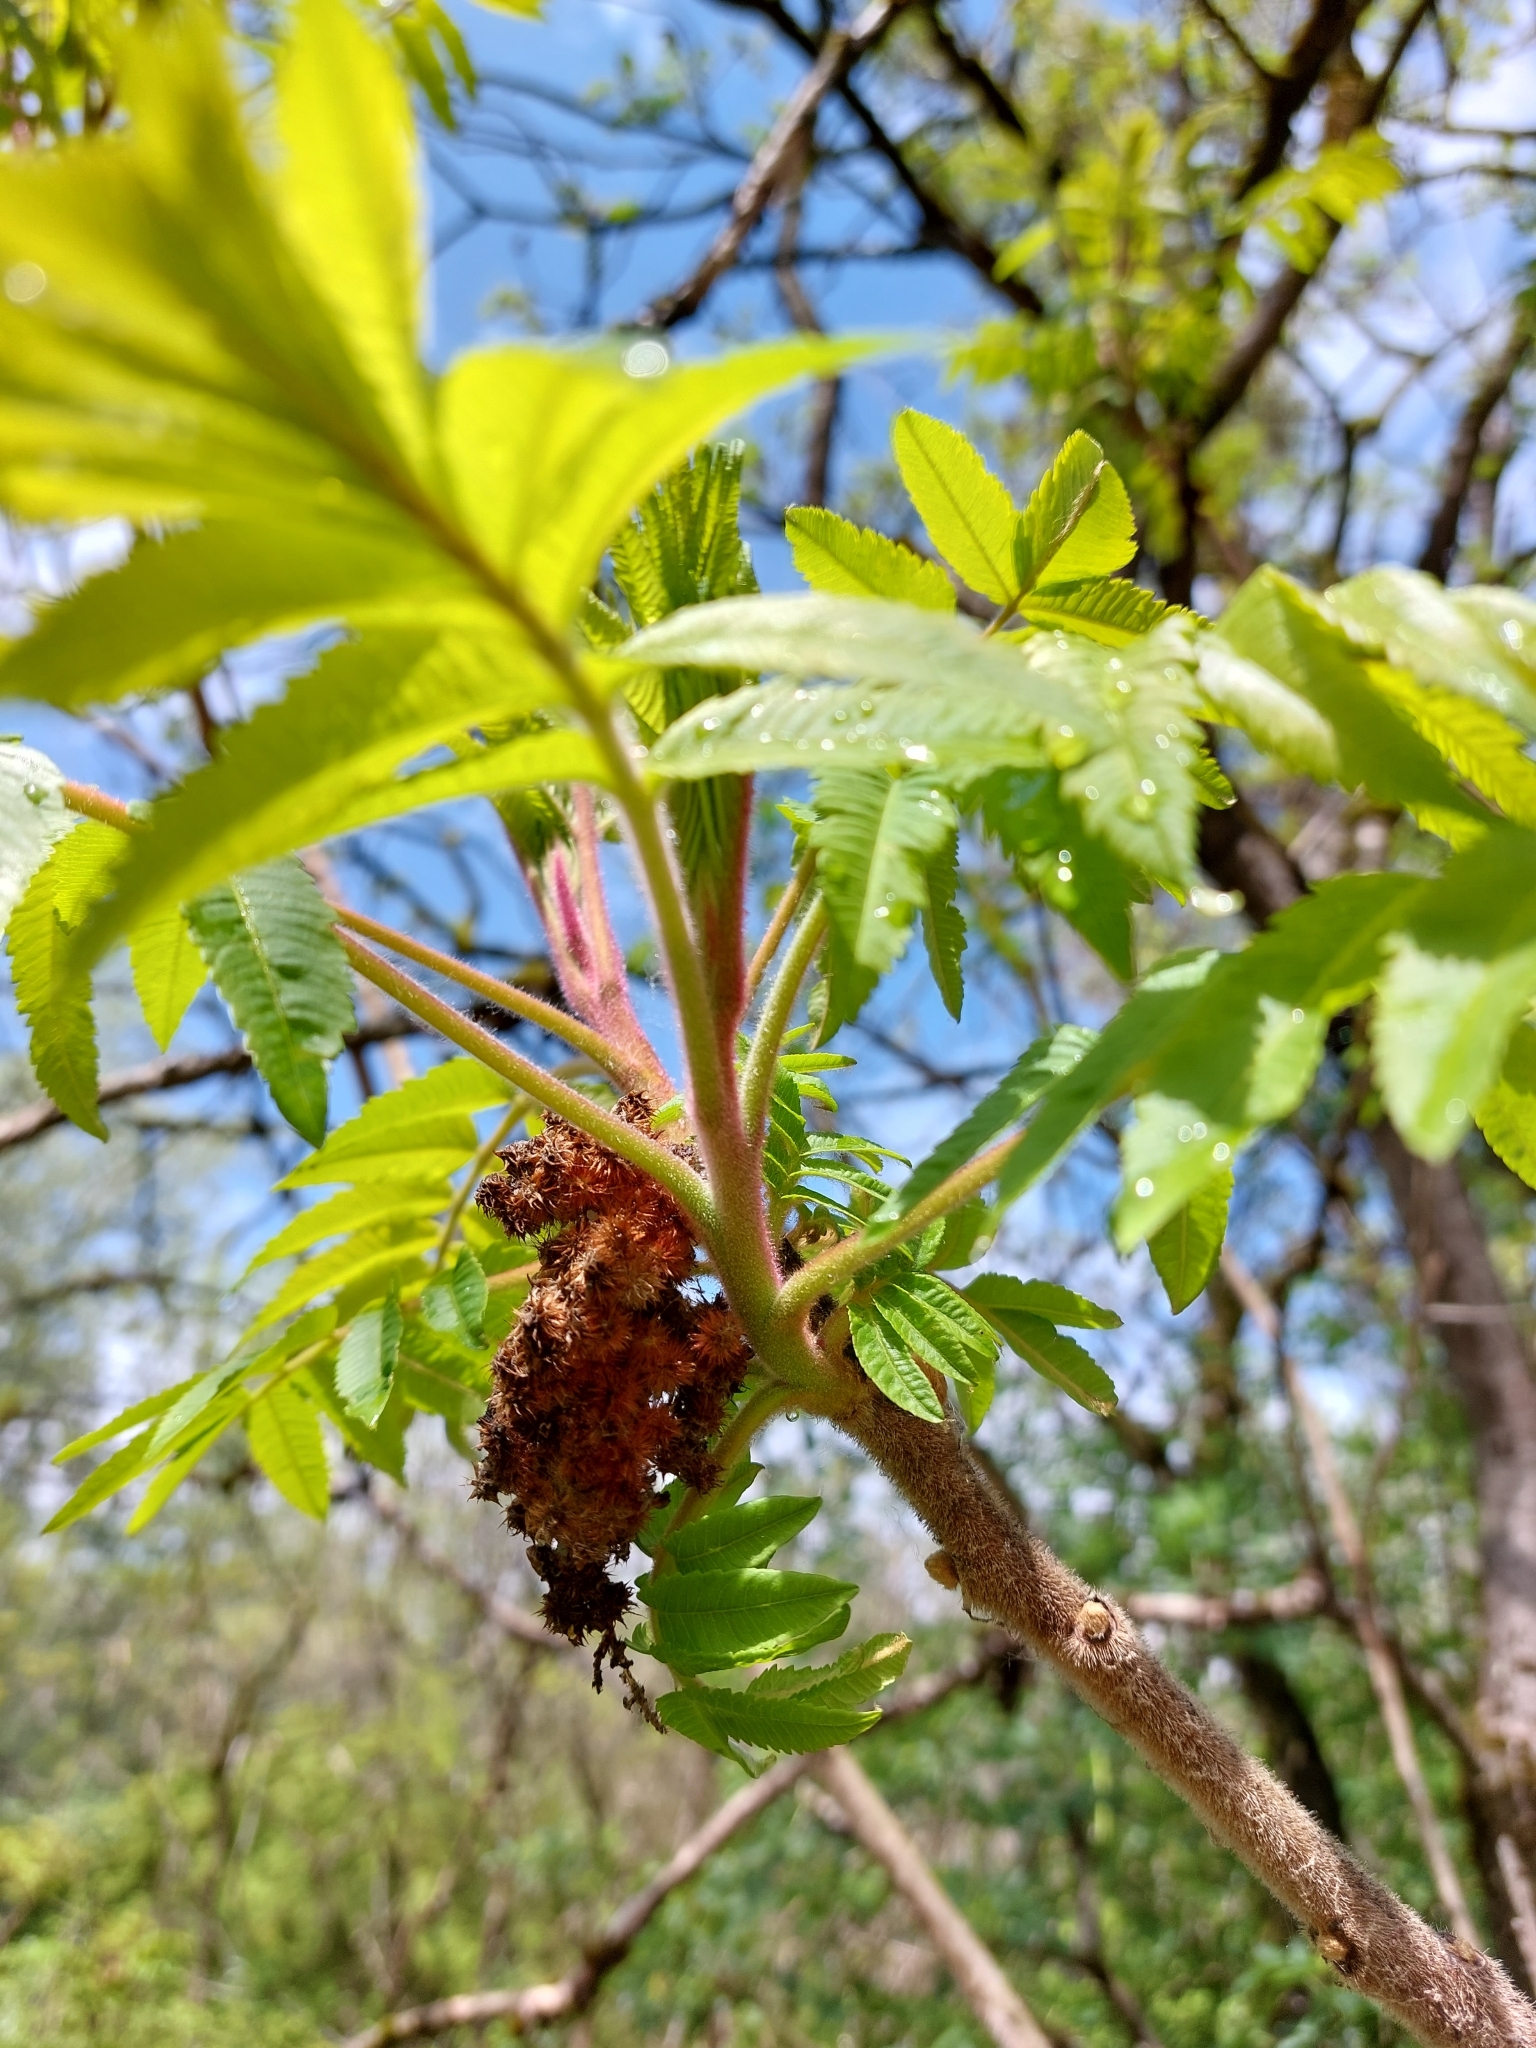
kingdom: Plantae
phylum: Tracheophyta
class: Magnoliopsida
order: Sapindales
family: Anacardiaceae
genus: Rhus
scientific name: Rhus typhina
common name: Staghorn sumac
